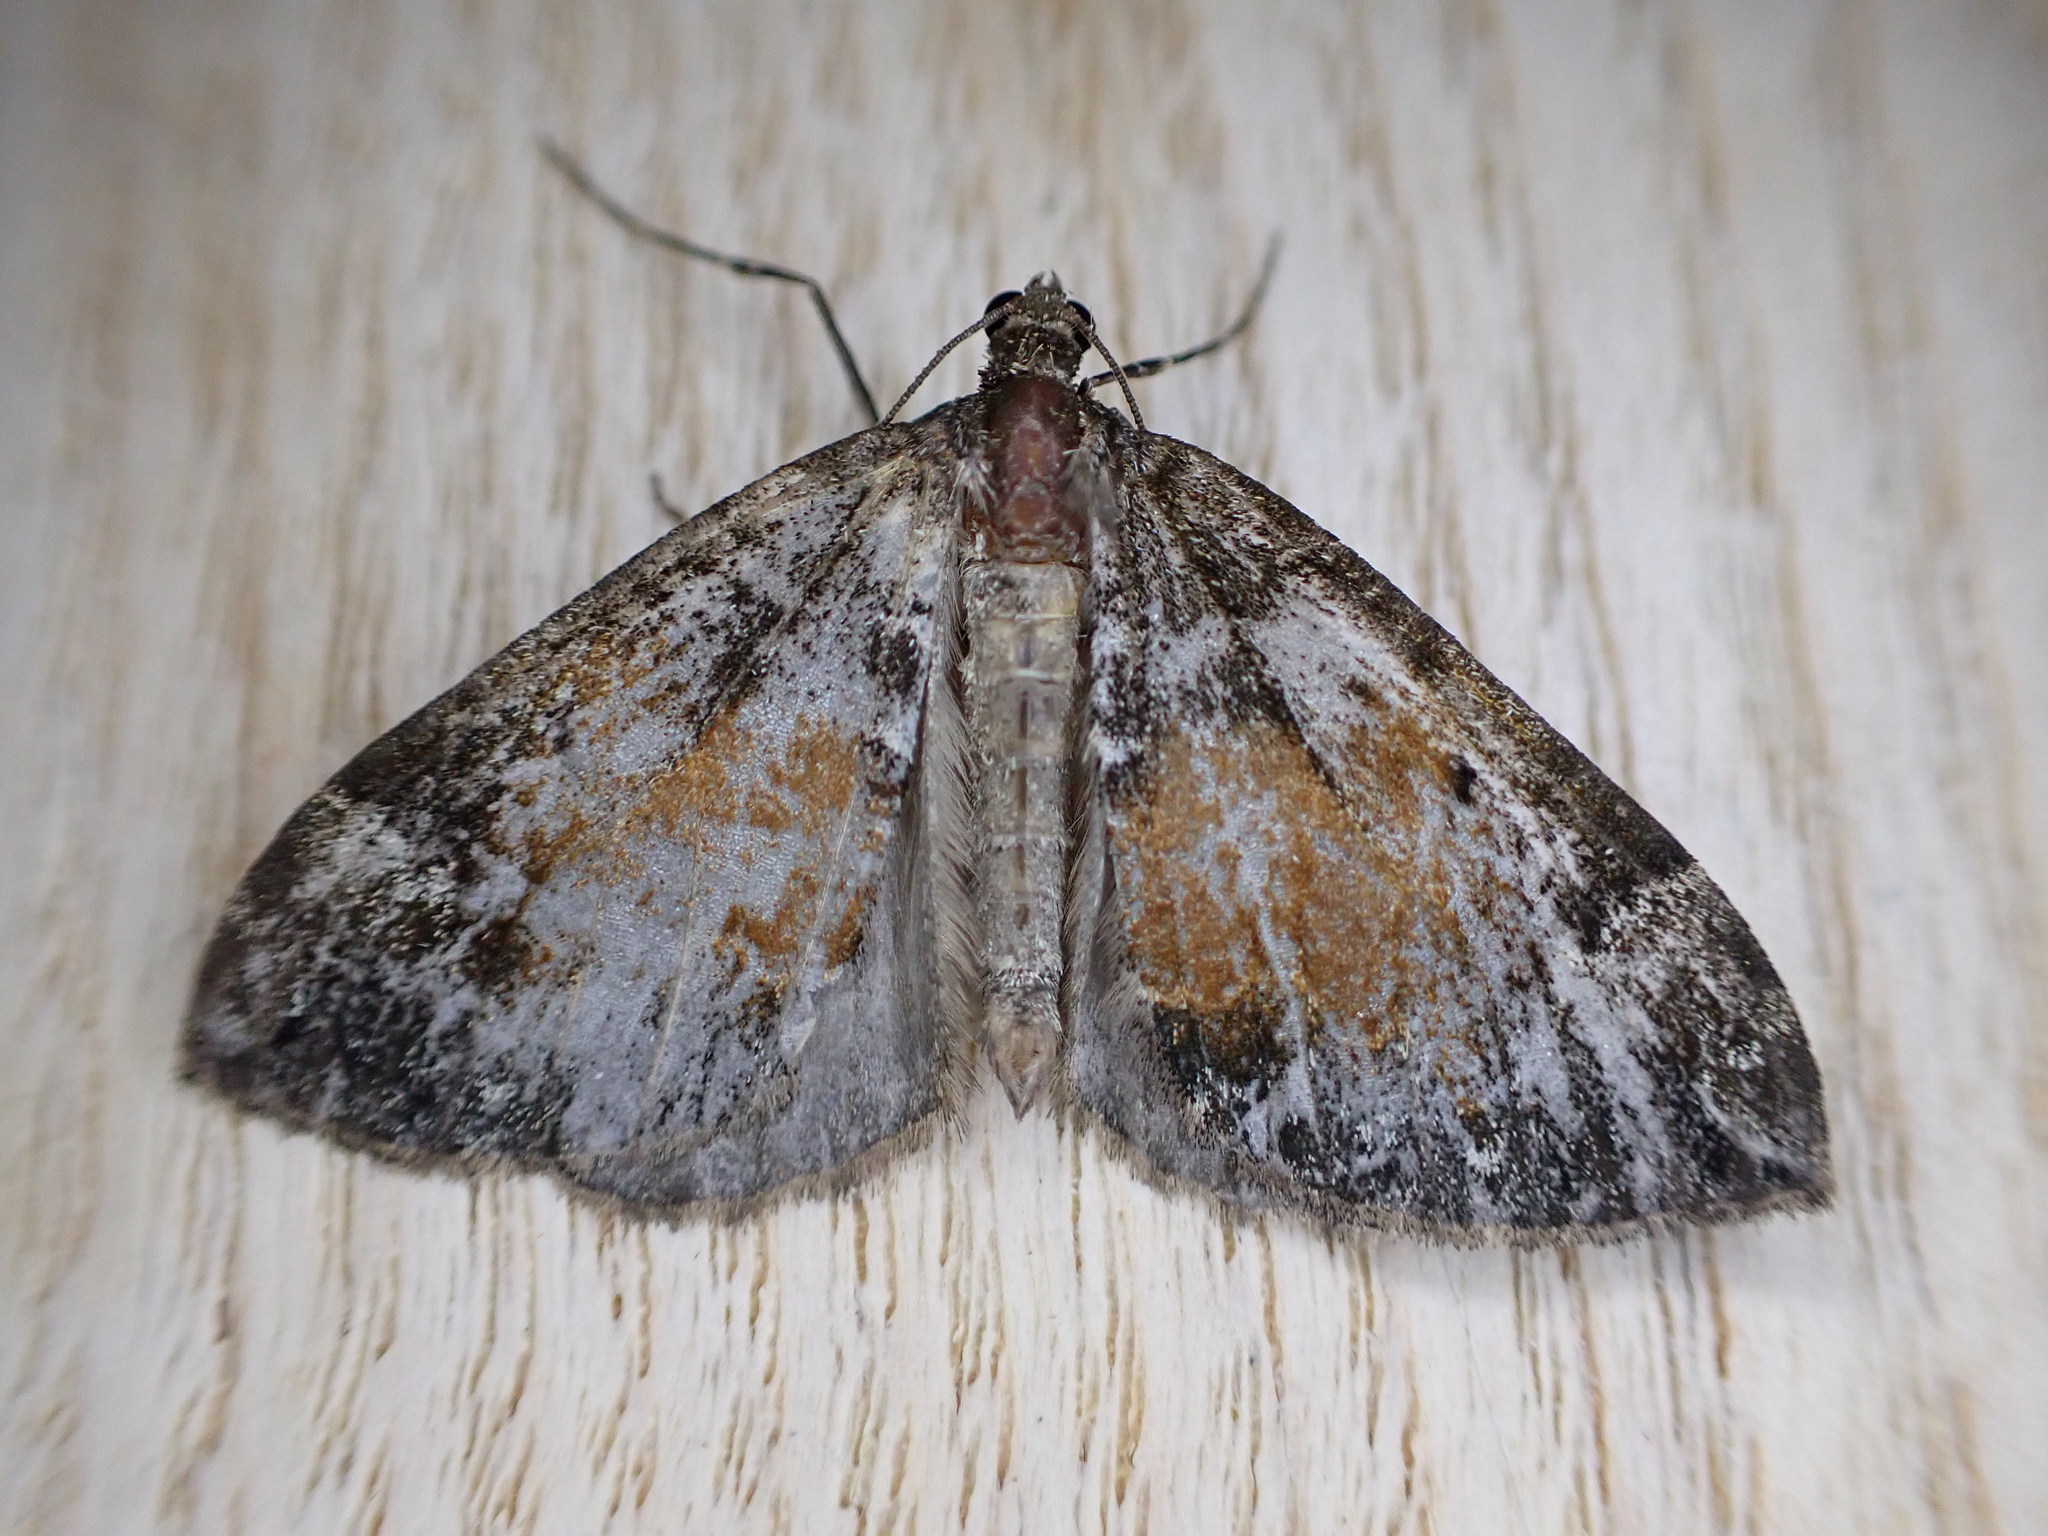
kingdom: Animalia
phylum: Arthropoda
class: Insecta
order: Lepidoptera
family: Geometridae
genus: Dysstroma
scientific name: Dysstroma truncata
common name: Common marbled carpet
